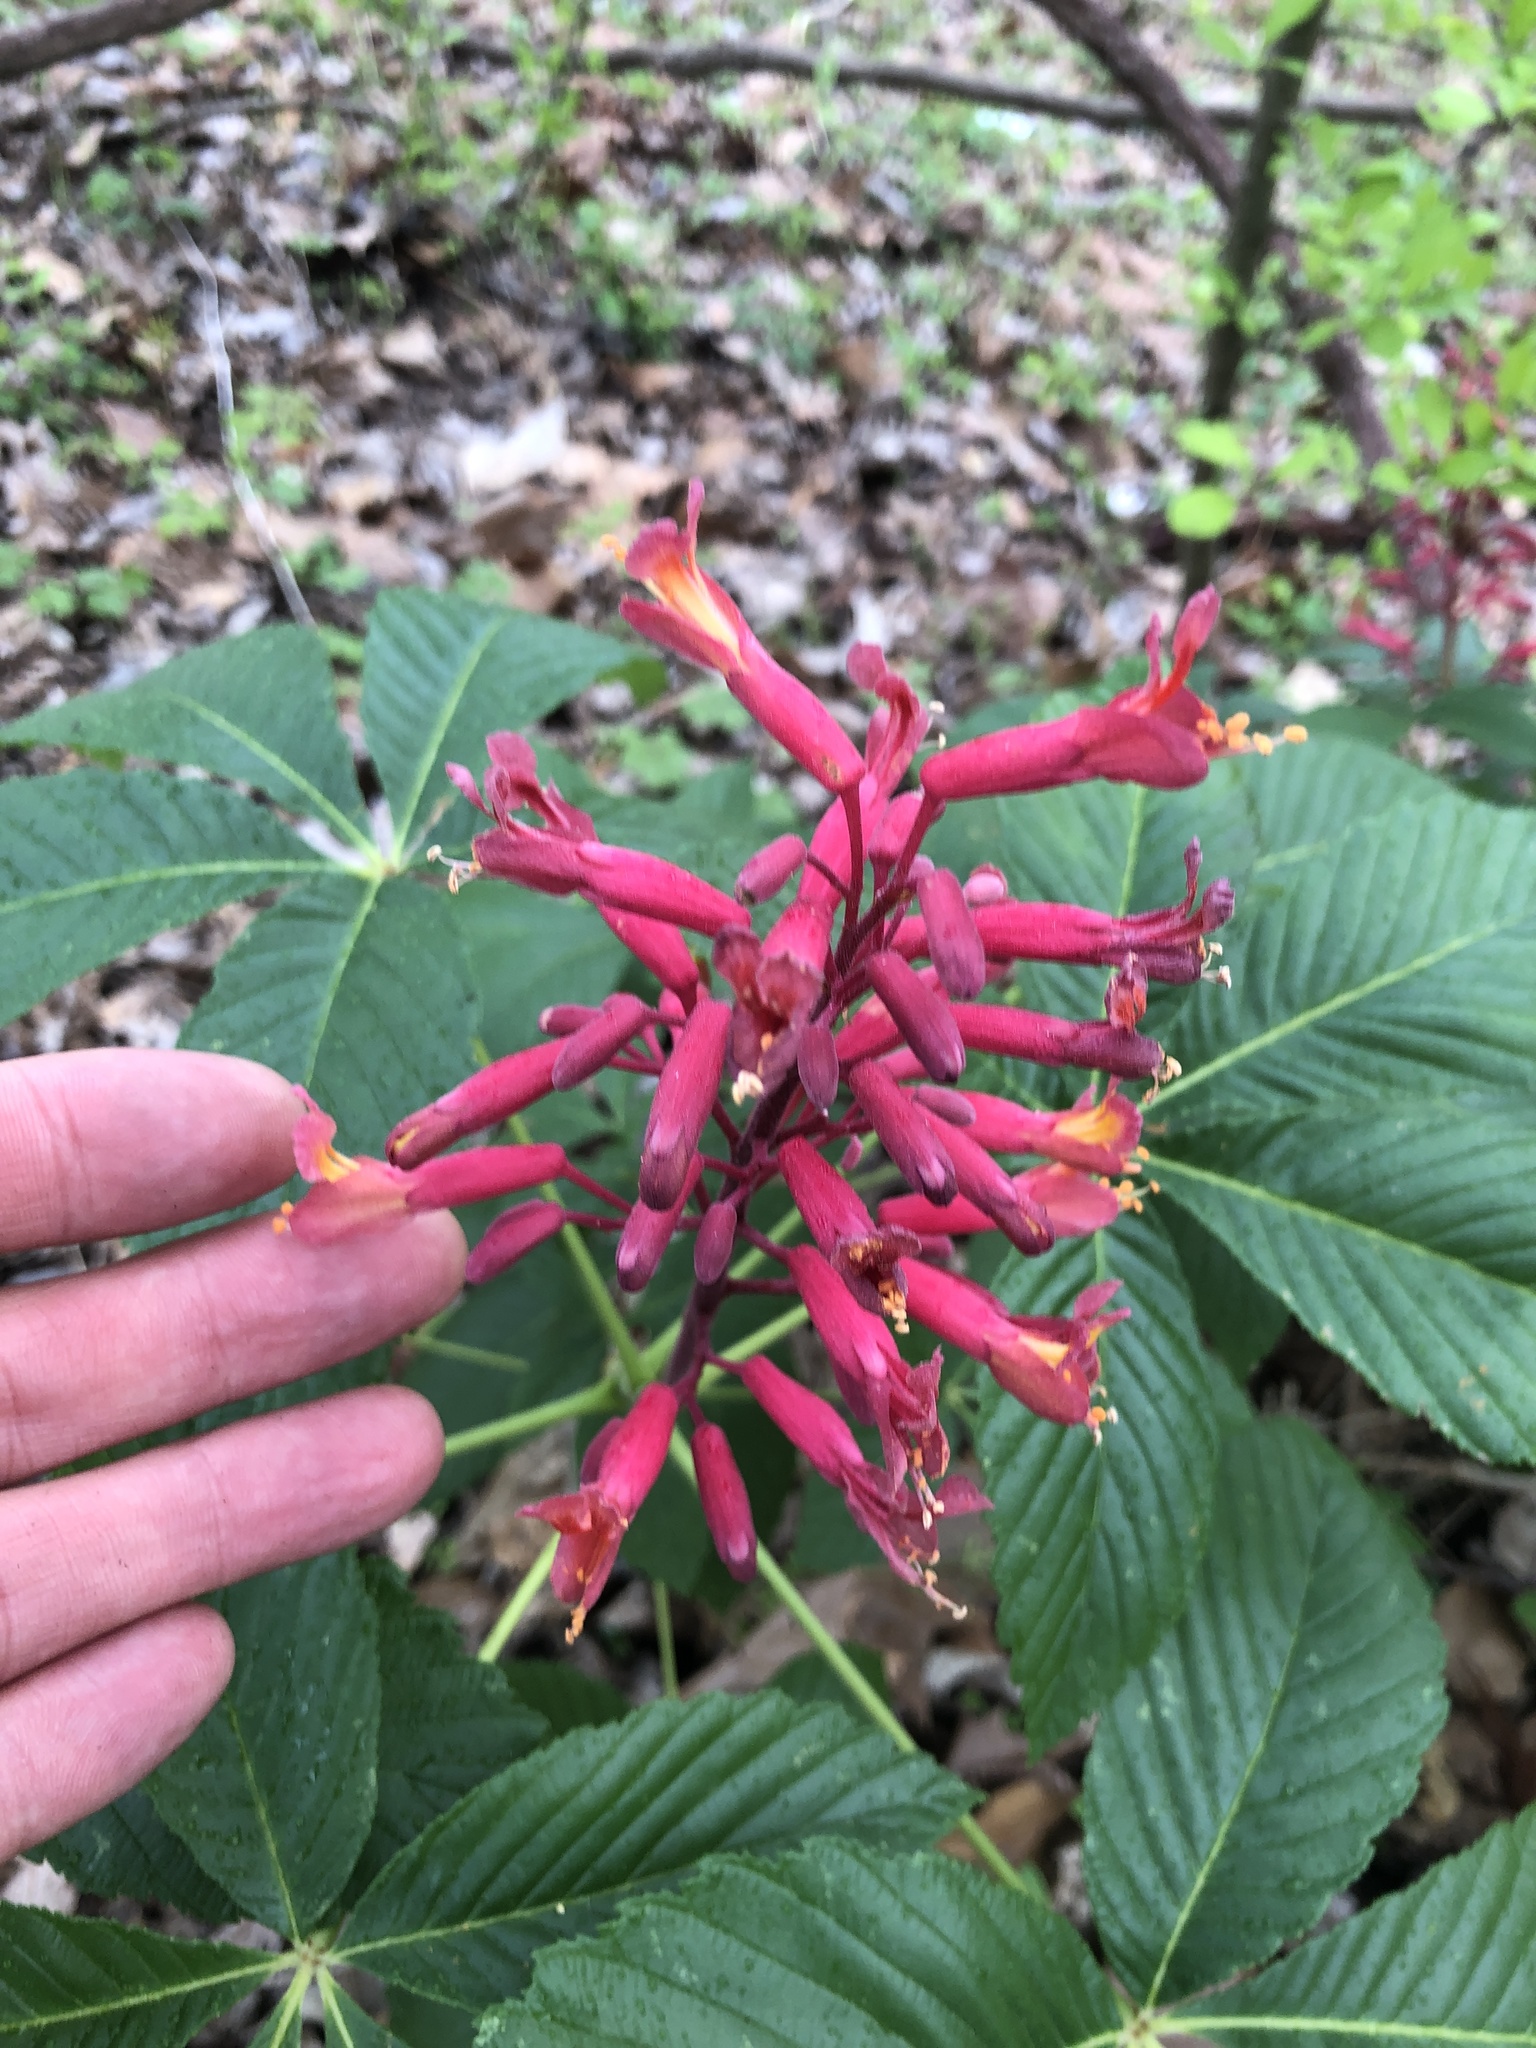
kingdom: Plantae
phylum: Tracheophyta
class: Magnoliopsida
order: Sapindales
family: Sapindaceae
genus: Aesculus
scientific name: Aesculus pavia
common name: Red buckeye
